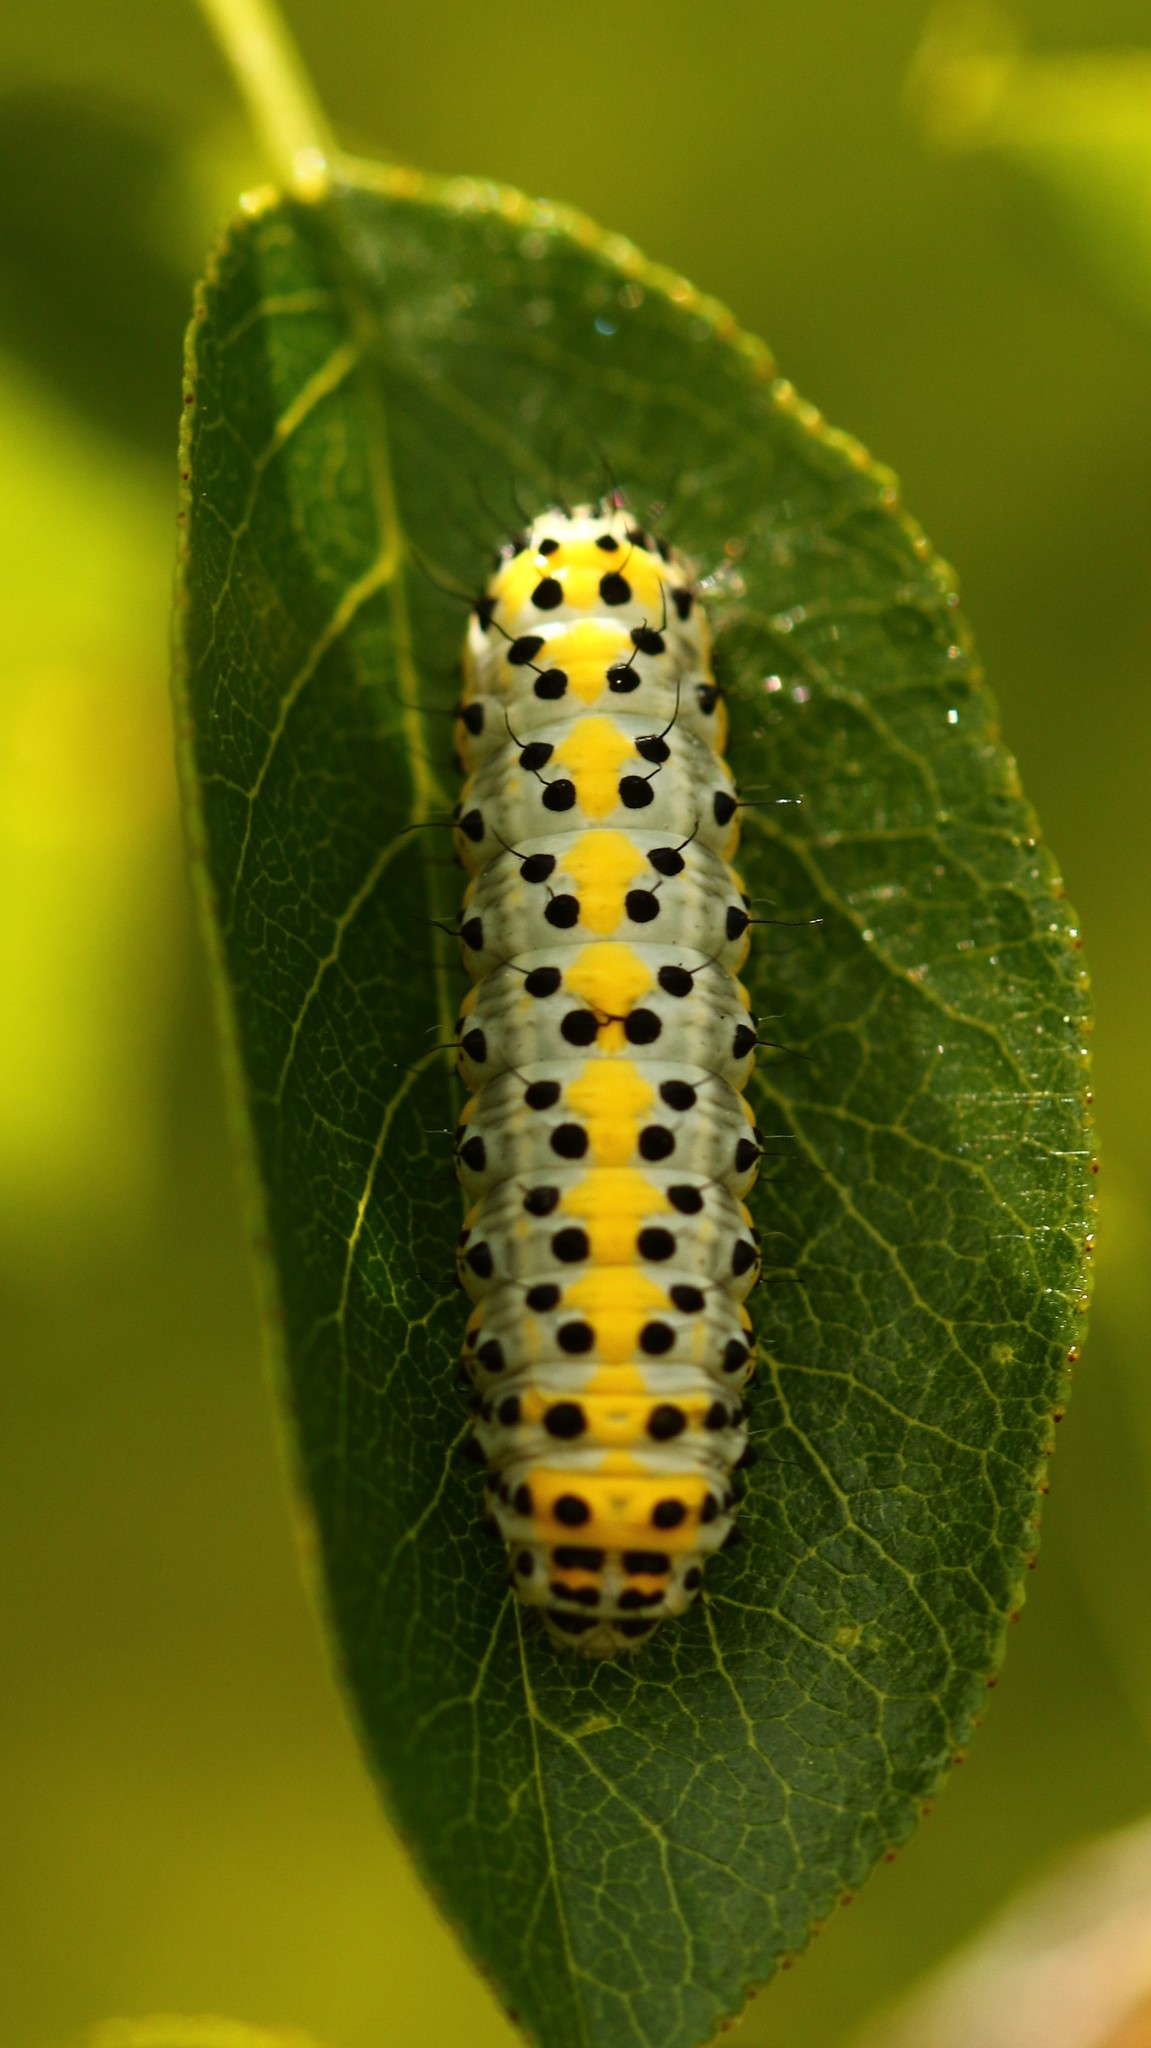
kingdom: Animalia
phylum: Arthropoda
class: Insecta
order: Lepidoptera
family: Noctuidae
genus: Diloba
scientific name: Diloba caeruleocephala
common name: Figure of eight
